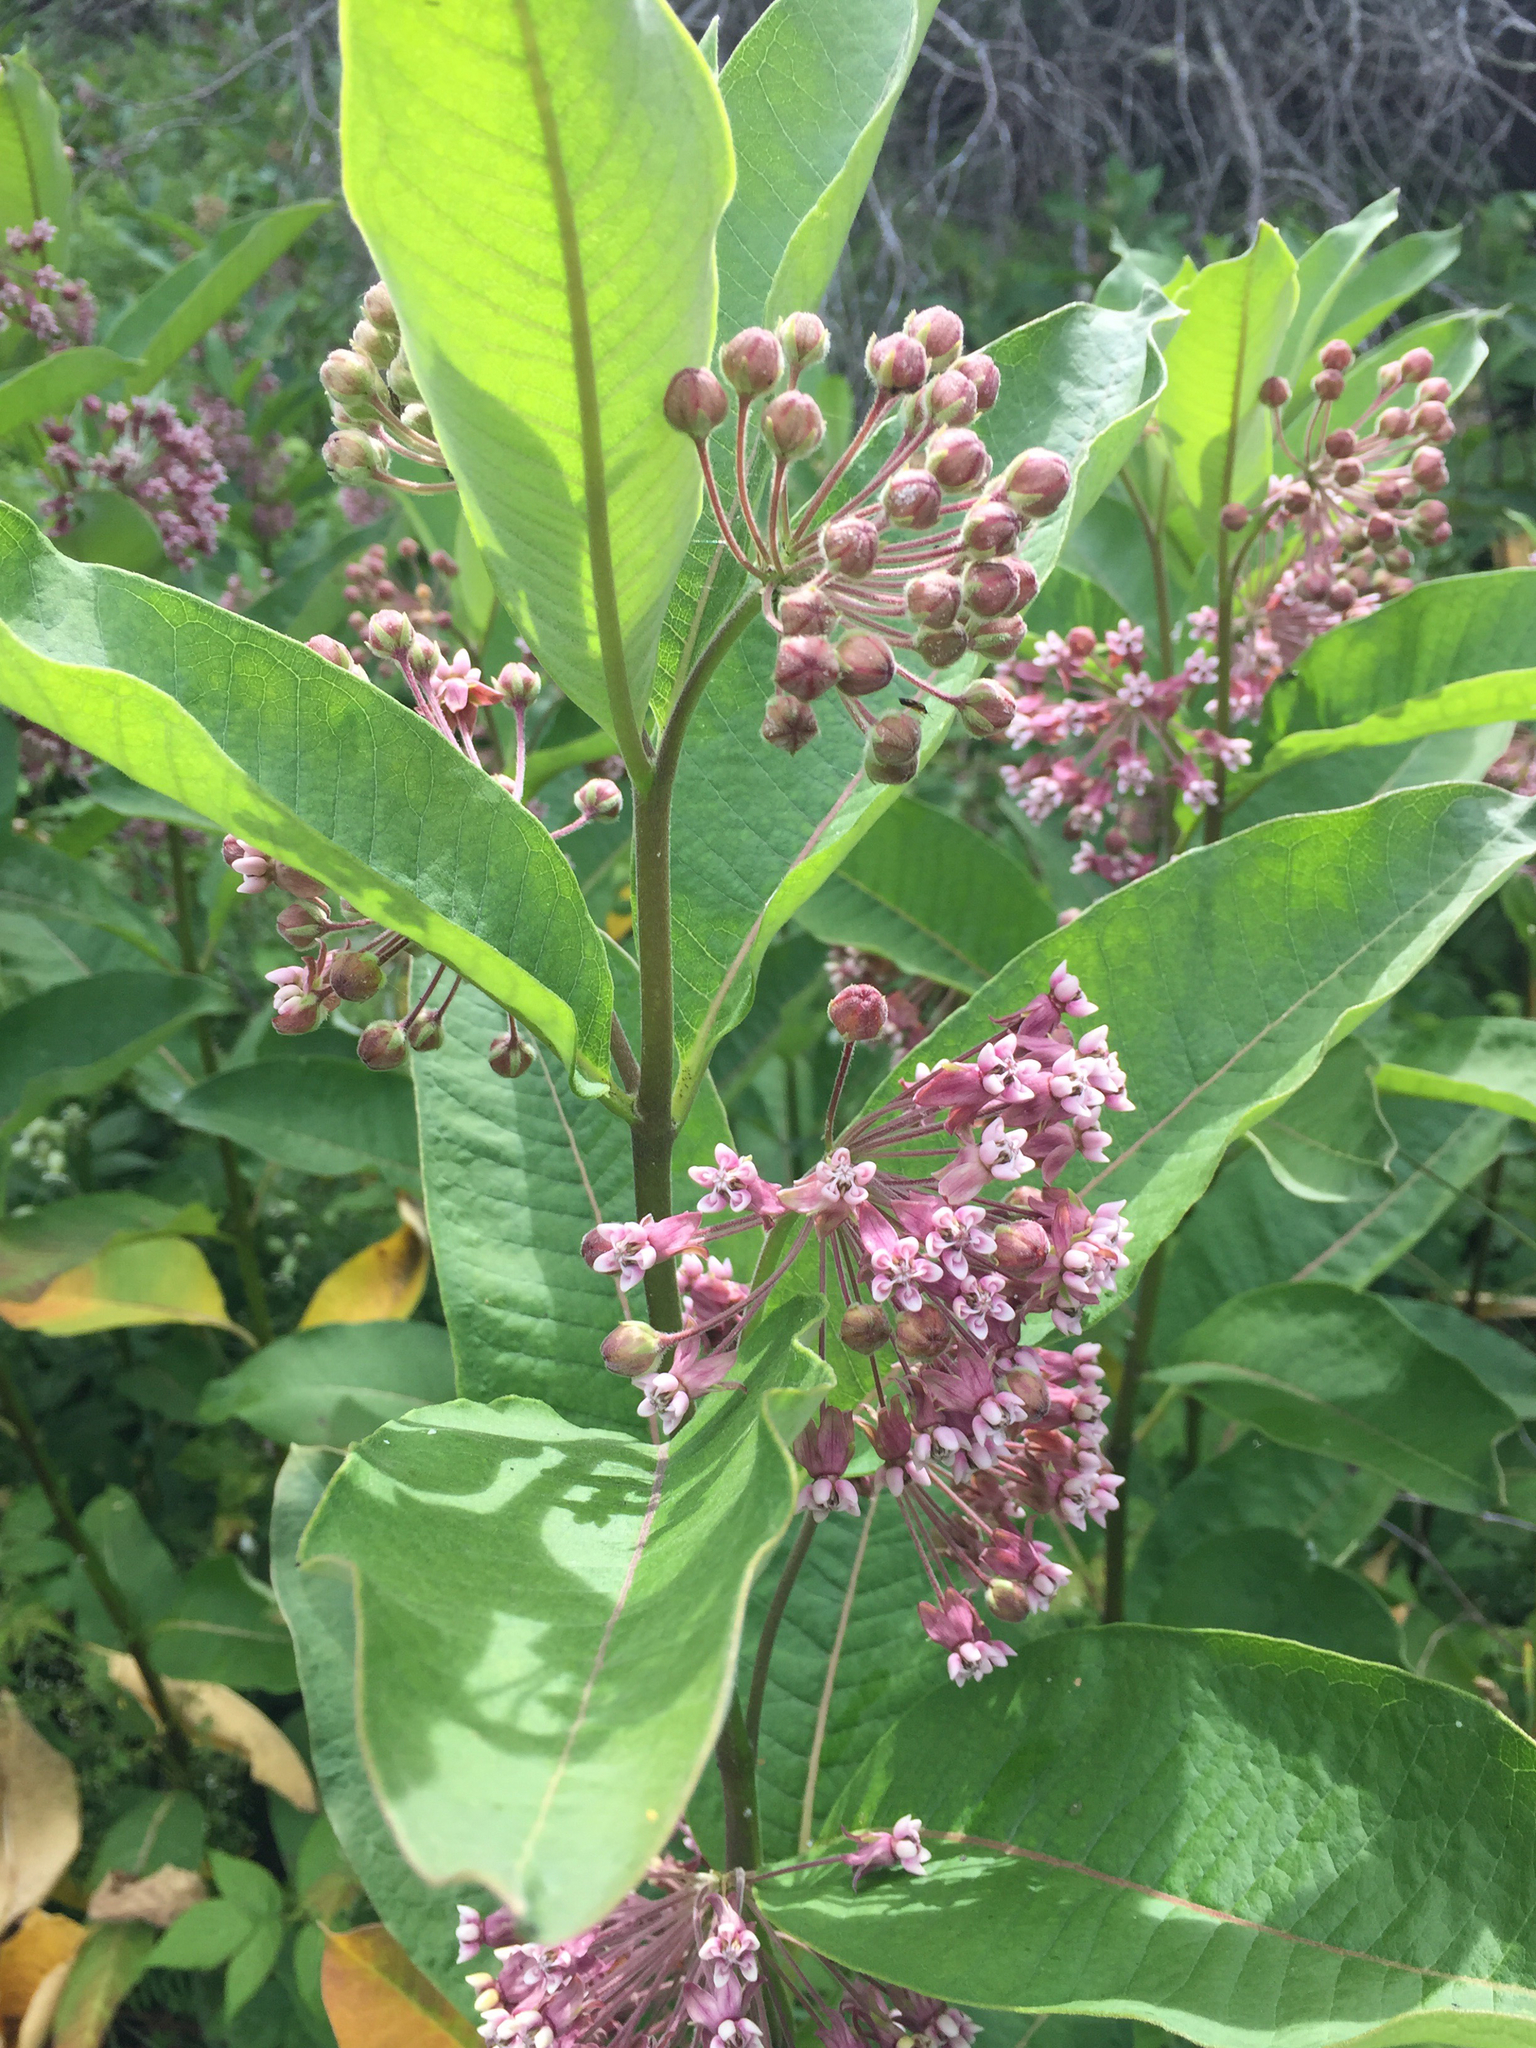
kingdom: Plantae
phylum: Tracheophyta
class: Magnoliopsida
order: Gentianales
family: Apocynaceae
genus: Asclepias
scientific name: Asclepias syriaca
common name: Common milkweed
